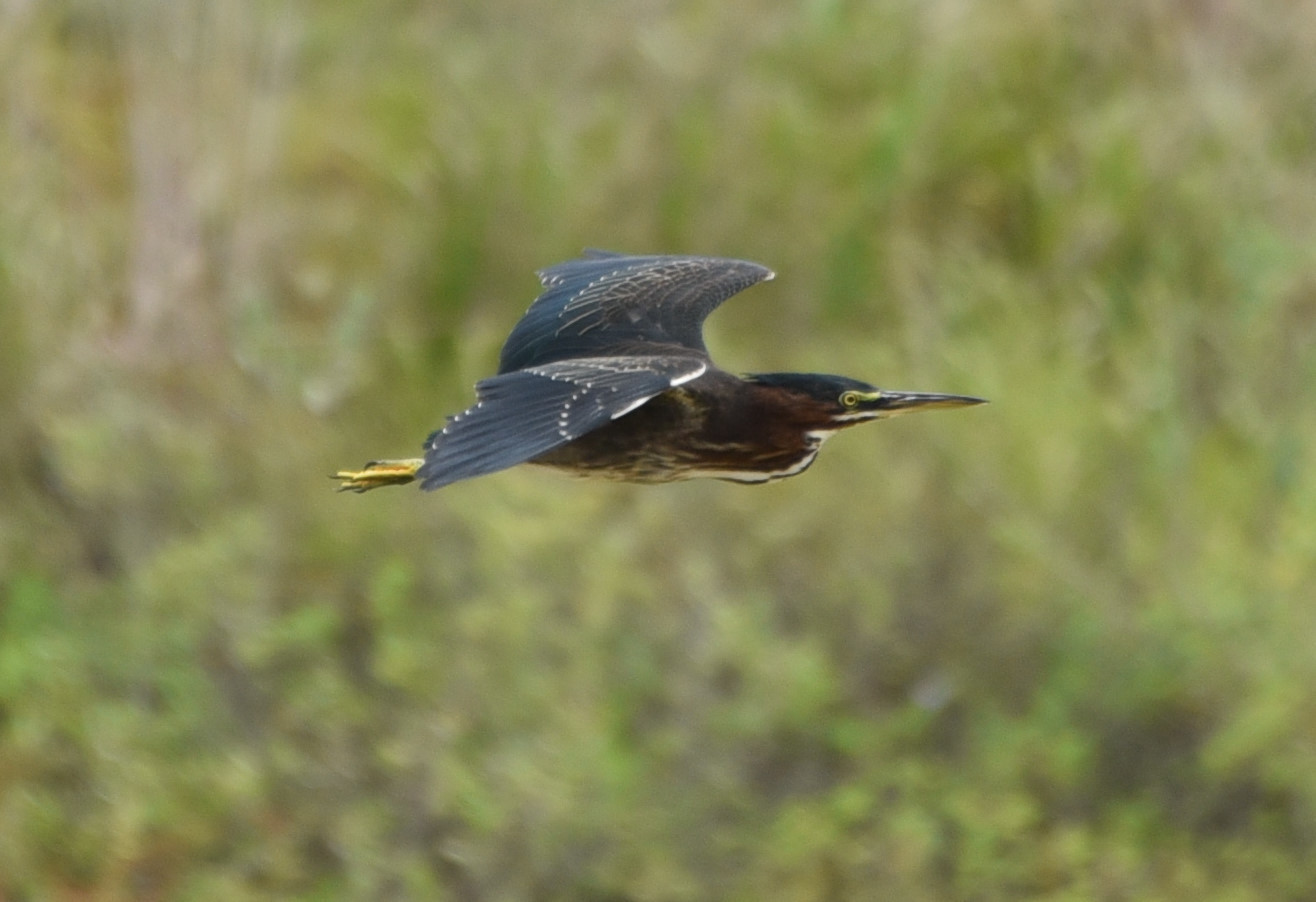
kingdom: Animalia
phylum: Chordata
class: Aves
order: Pelecaniformes
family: Ardeidae
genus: Butorides
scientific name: Butorides virescens
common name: Green heron
